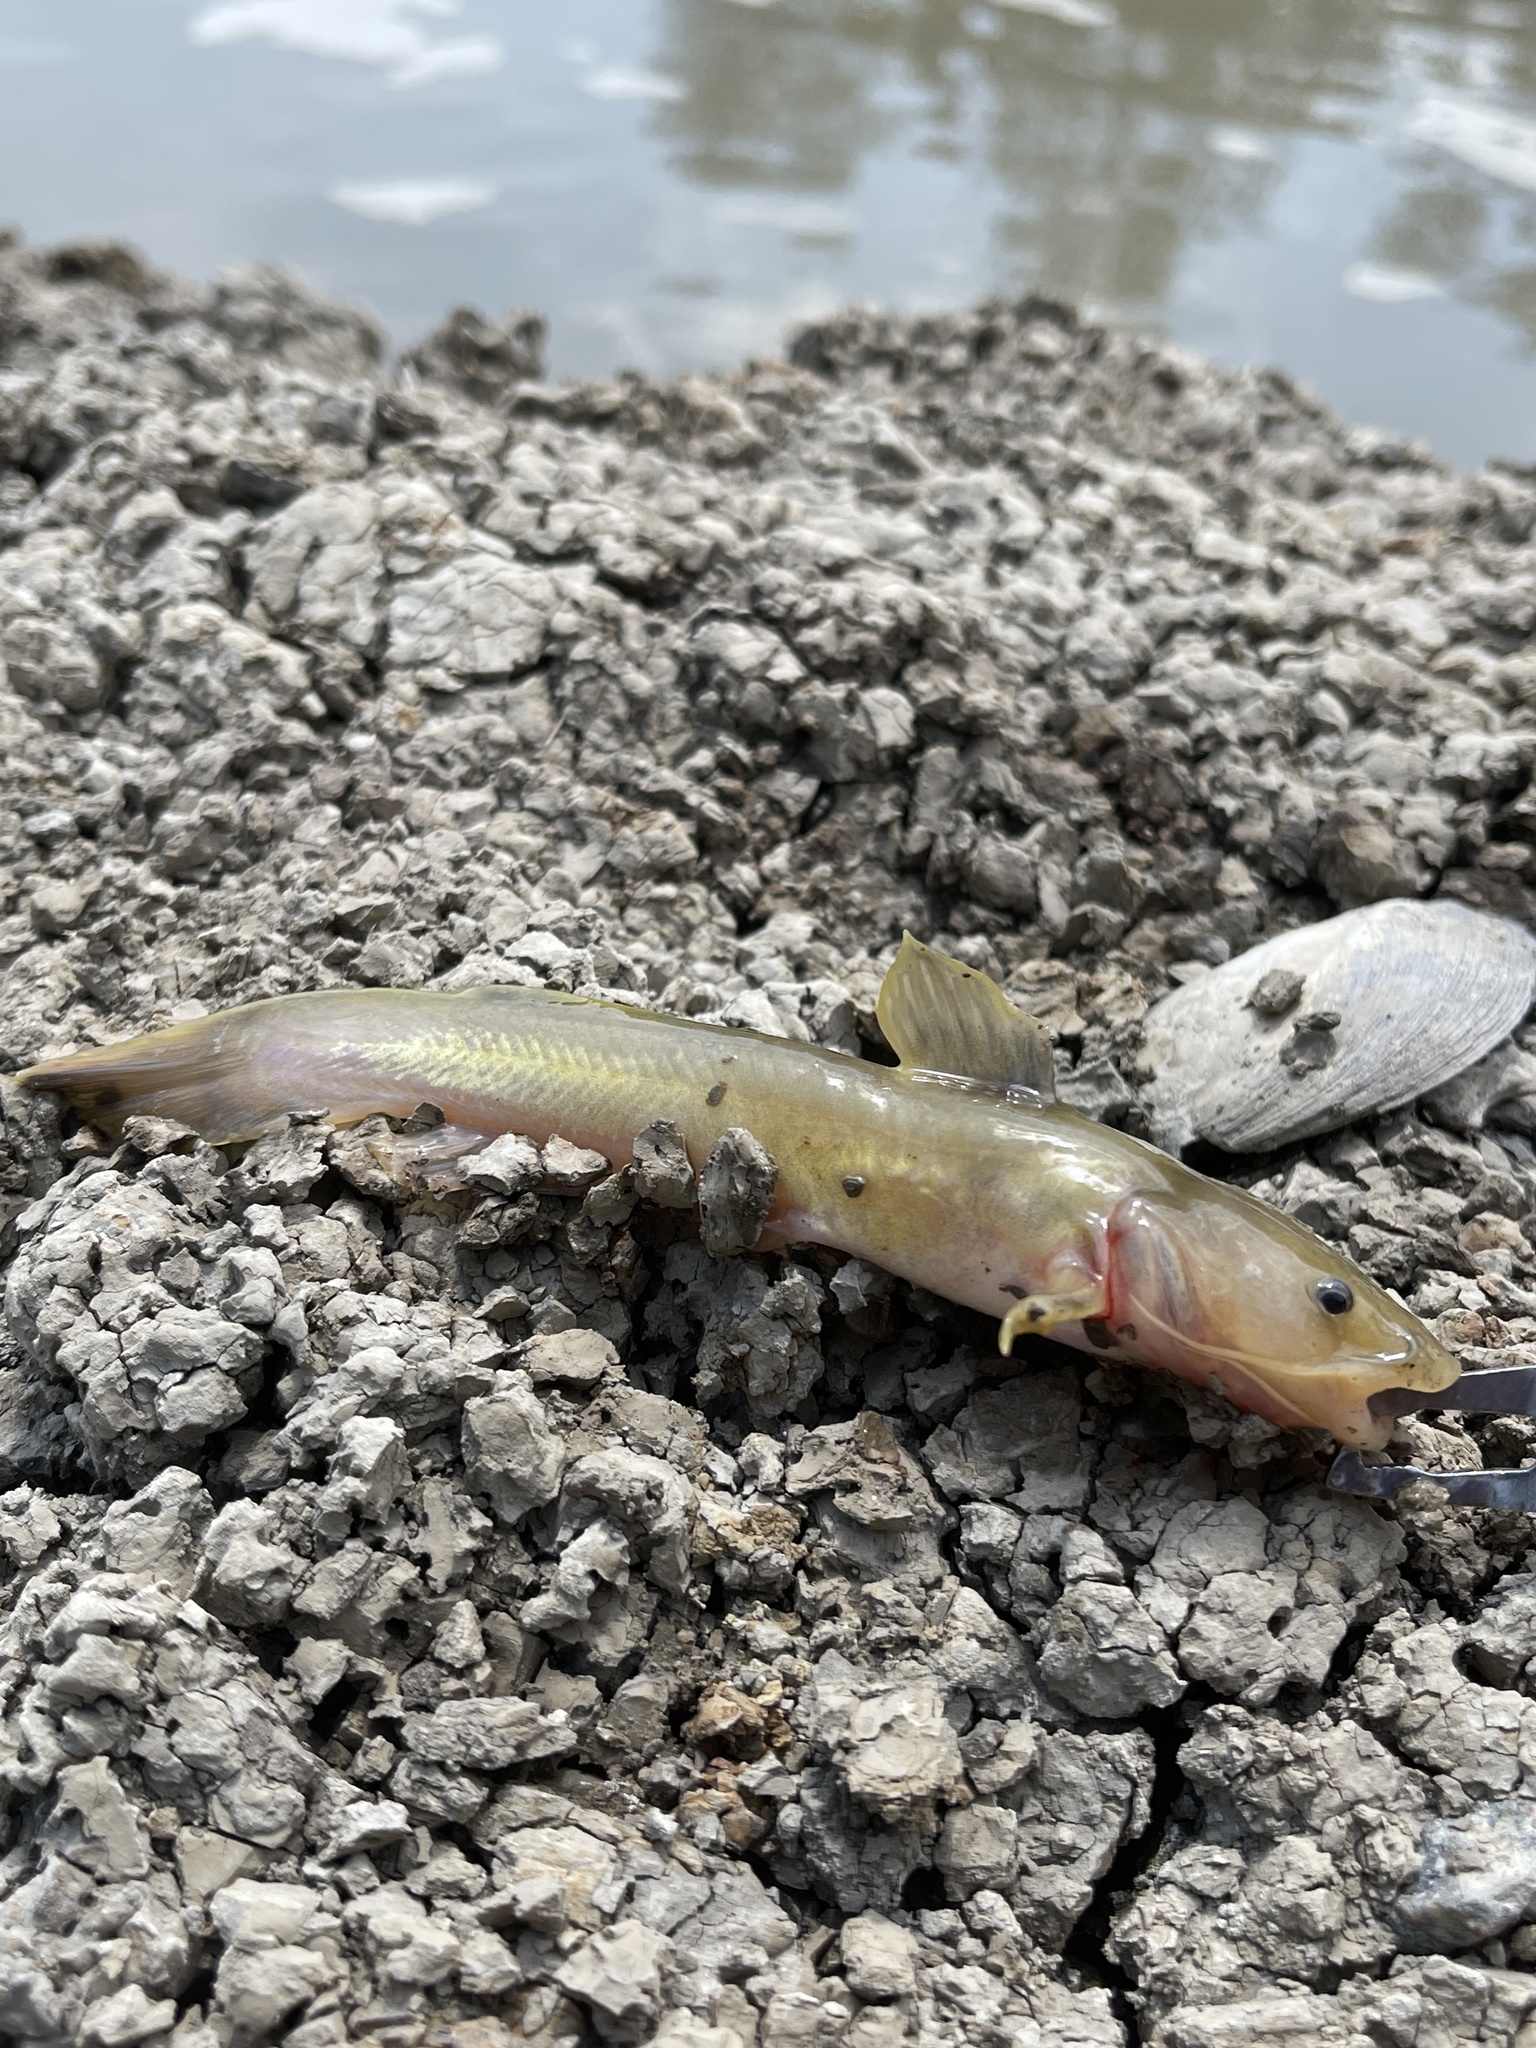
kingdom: Animalia
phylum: Chordata
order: Siluriformes
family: Ictaluridae
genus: Noturus
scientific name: Noturus flavus
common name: Stonecat
